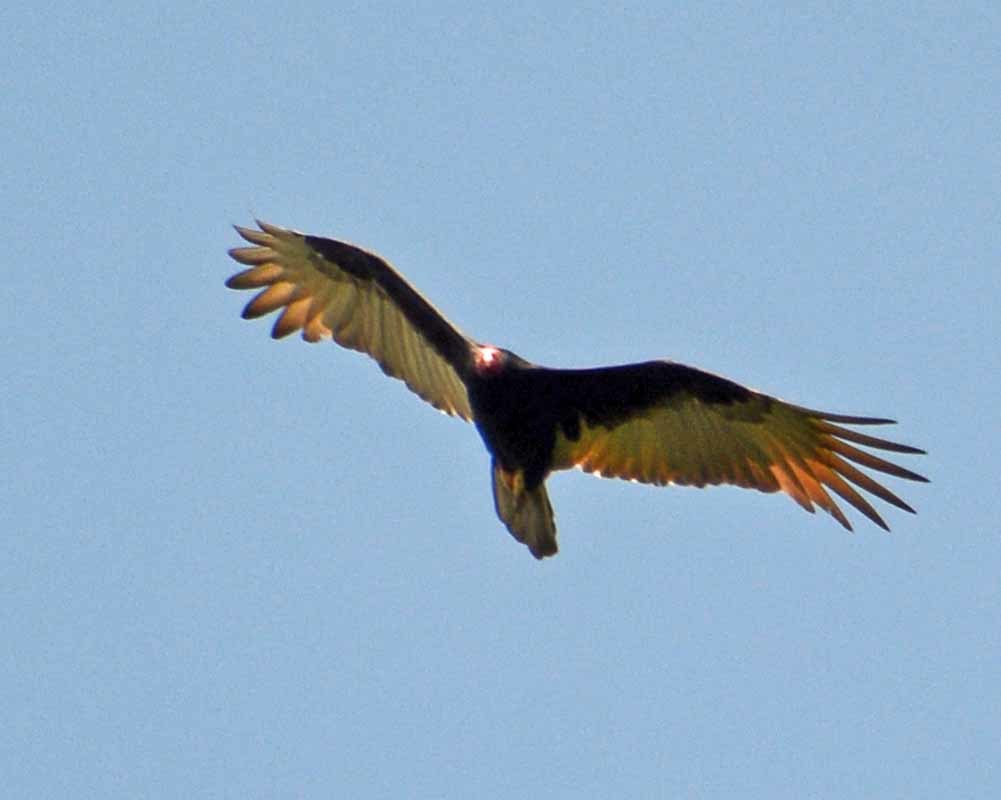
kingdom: Animalia
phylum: Chordata
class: Aves
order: Accipitriformes
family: Cathartidae
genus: Cathartes
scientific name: Cathartes aura
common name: Turkey vulture
